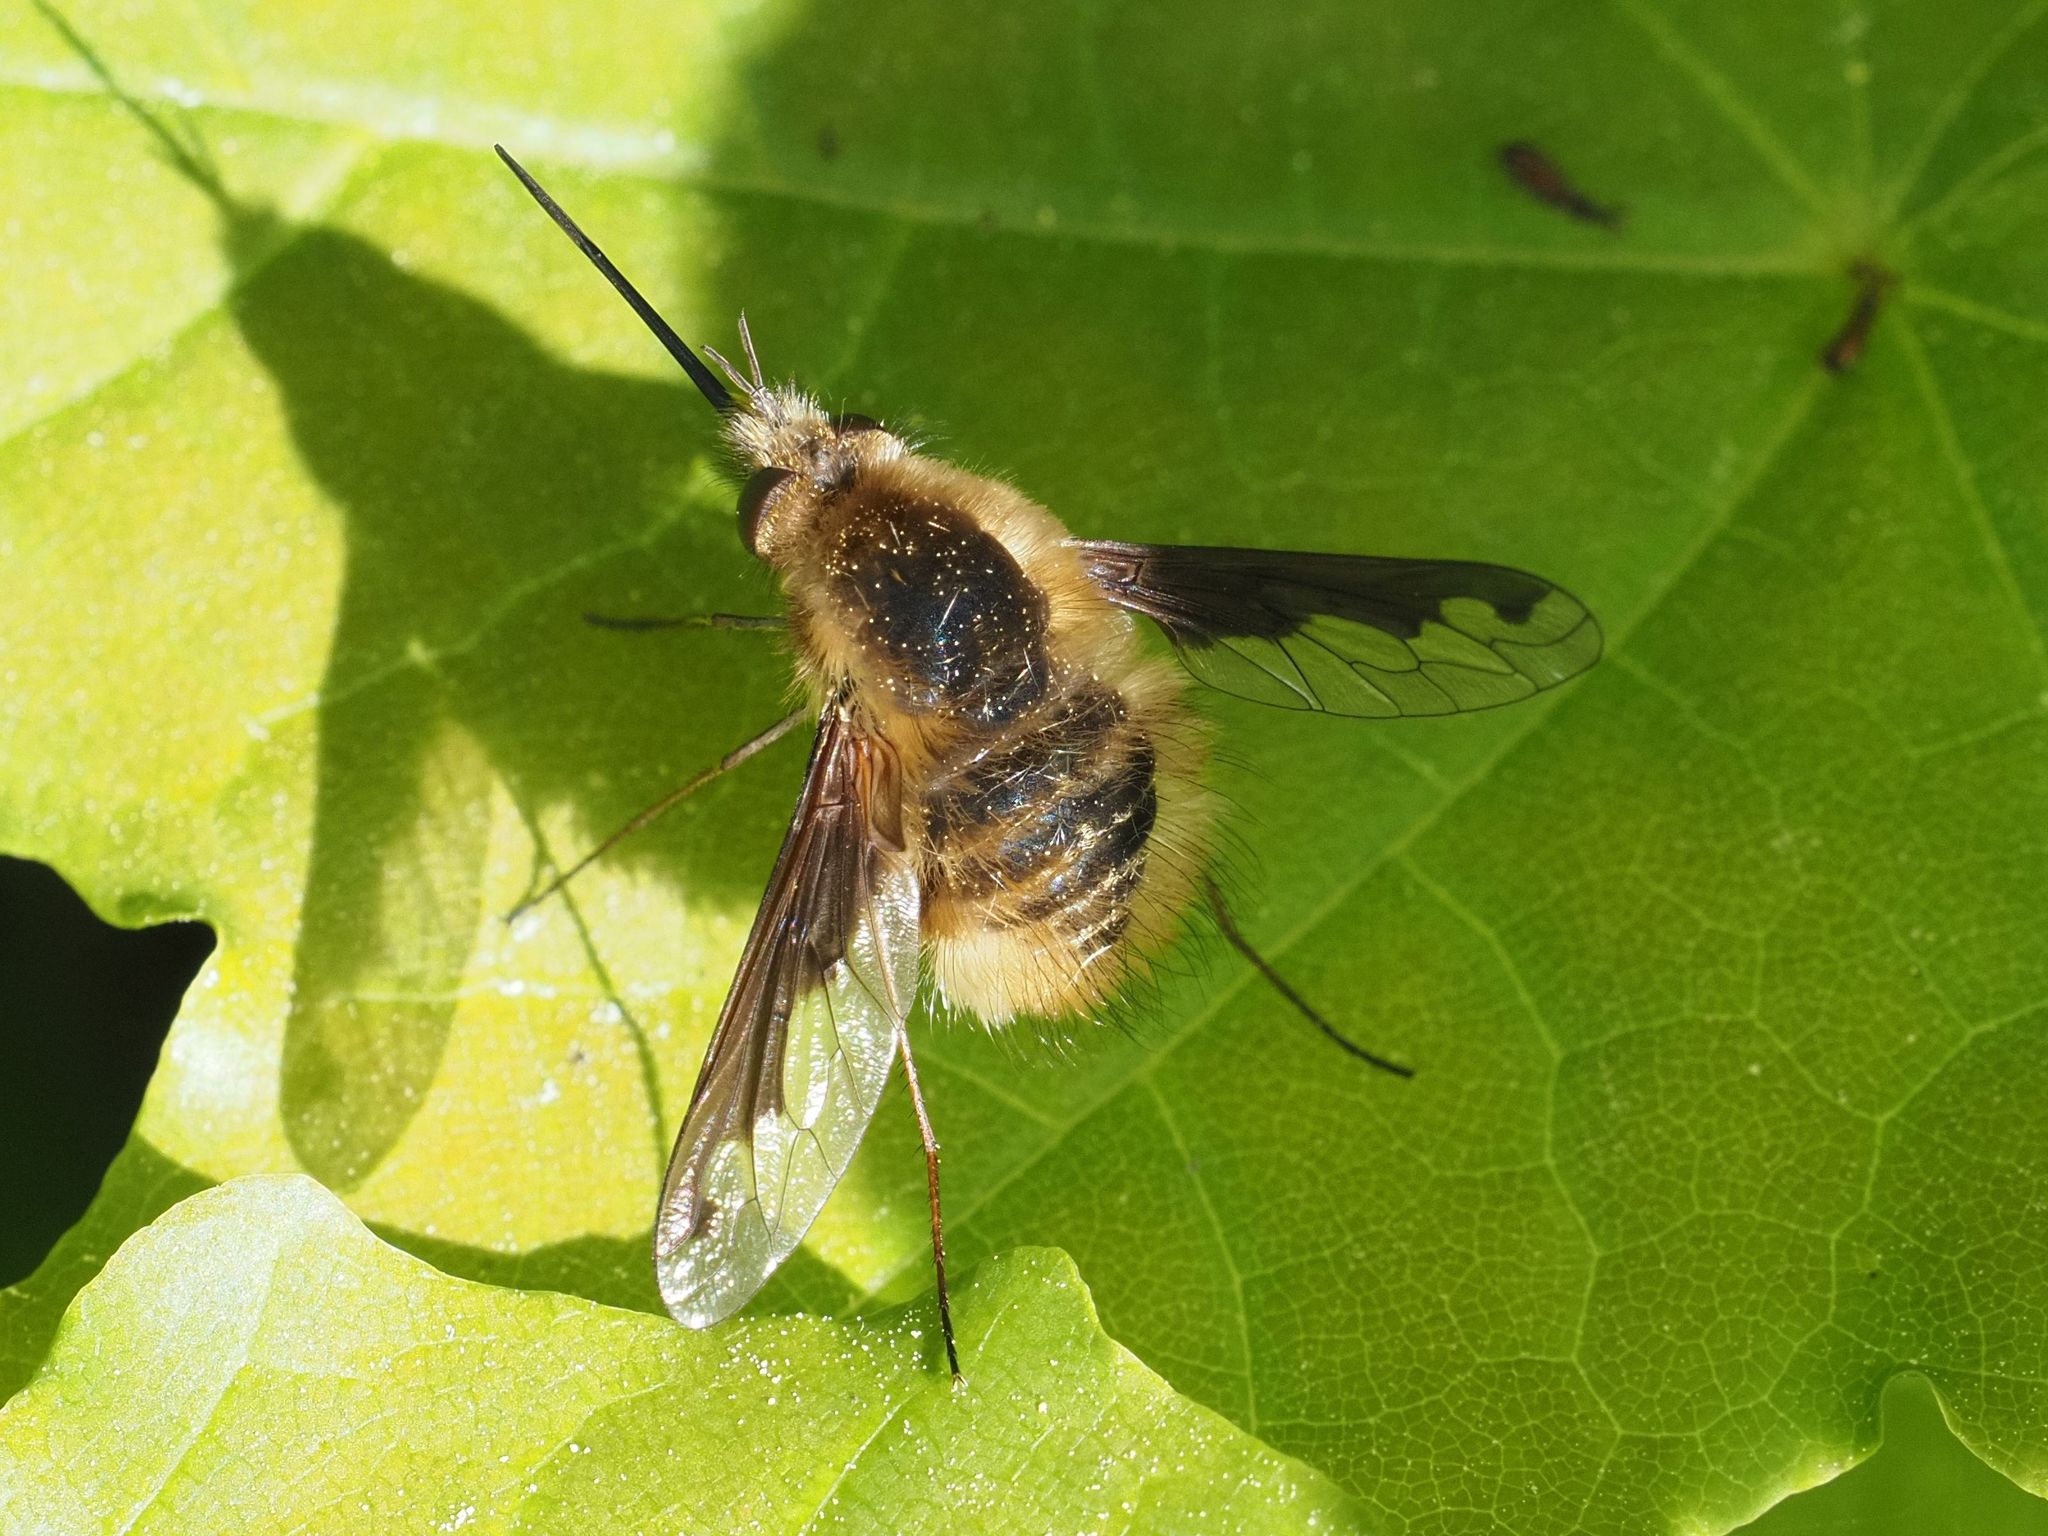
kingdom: Animalia
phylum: Arthropoda
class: Insecta
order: Diptera
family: Bombyliidae
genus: Bombylius
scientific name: Bombylius major
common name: Bee fly
